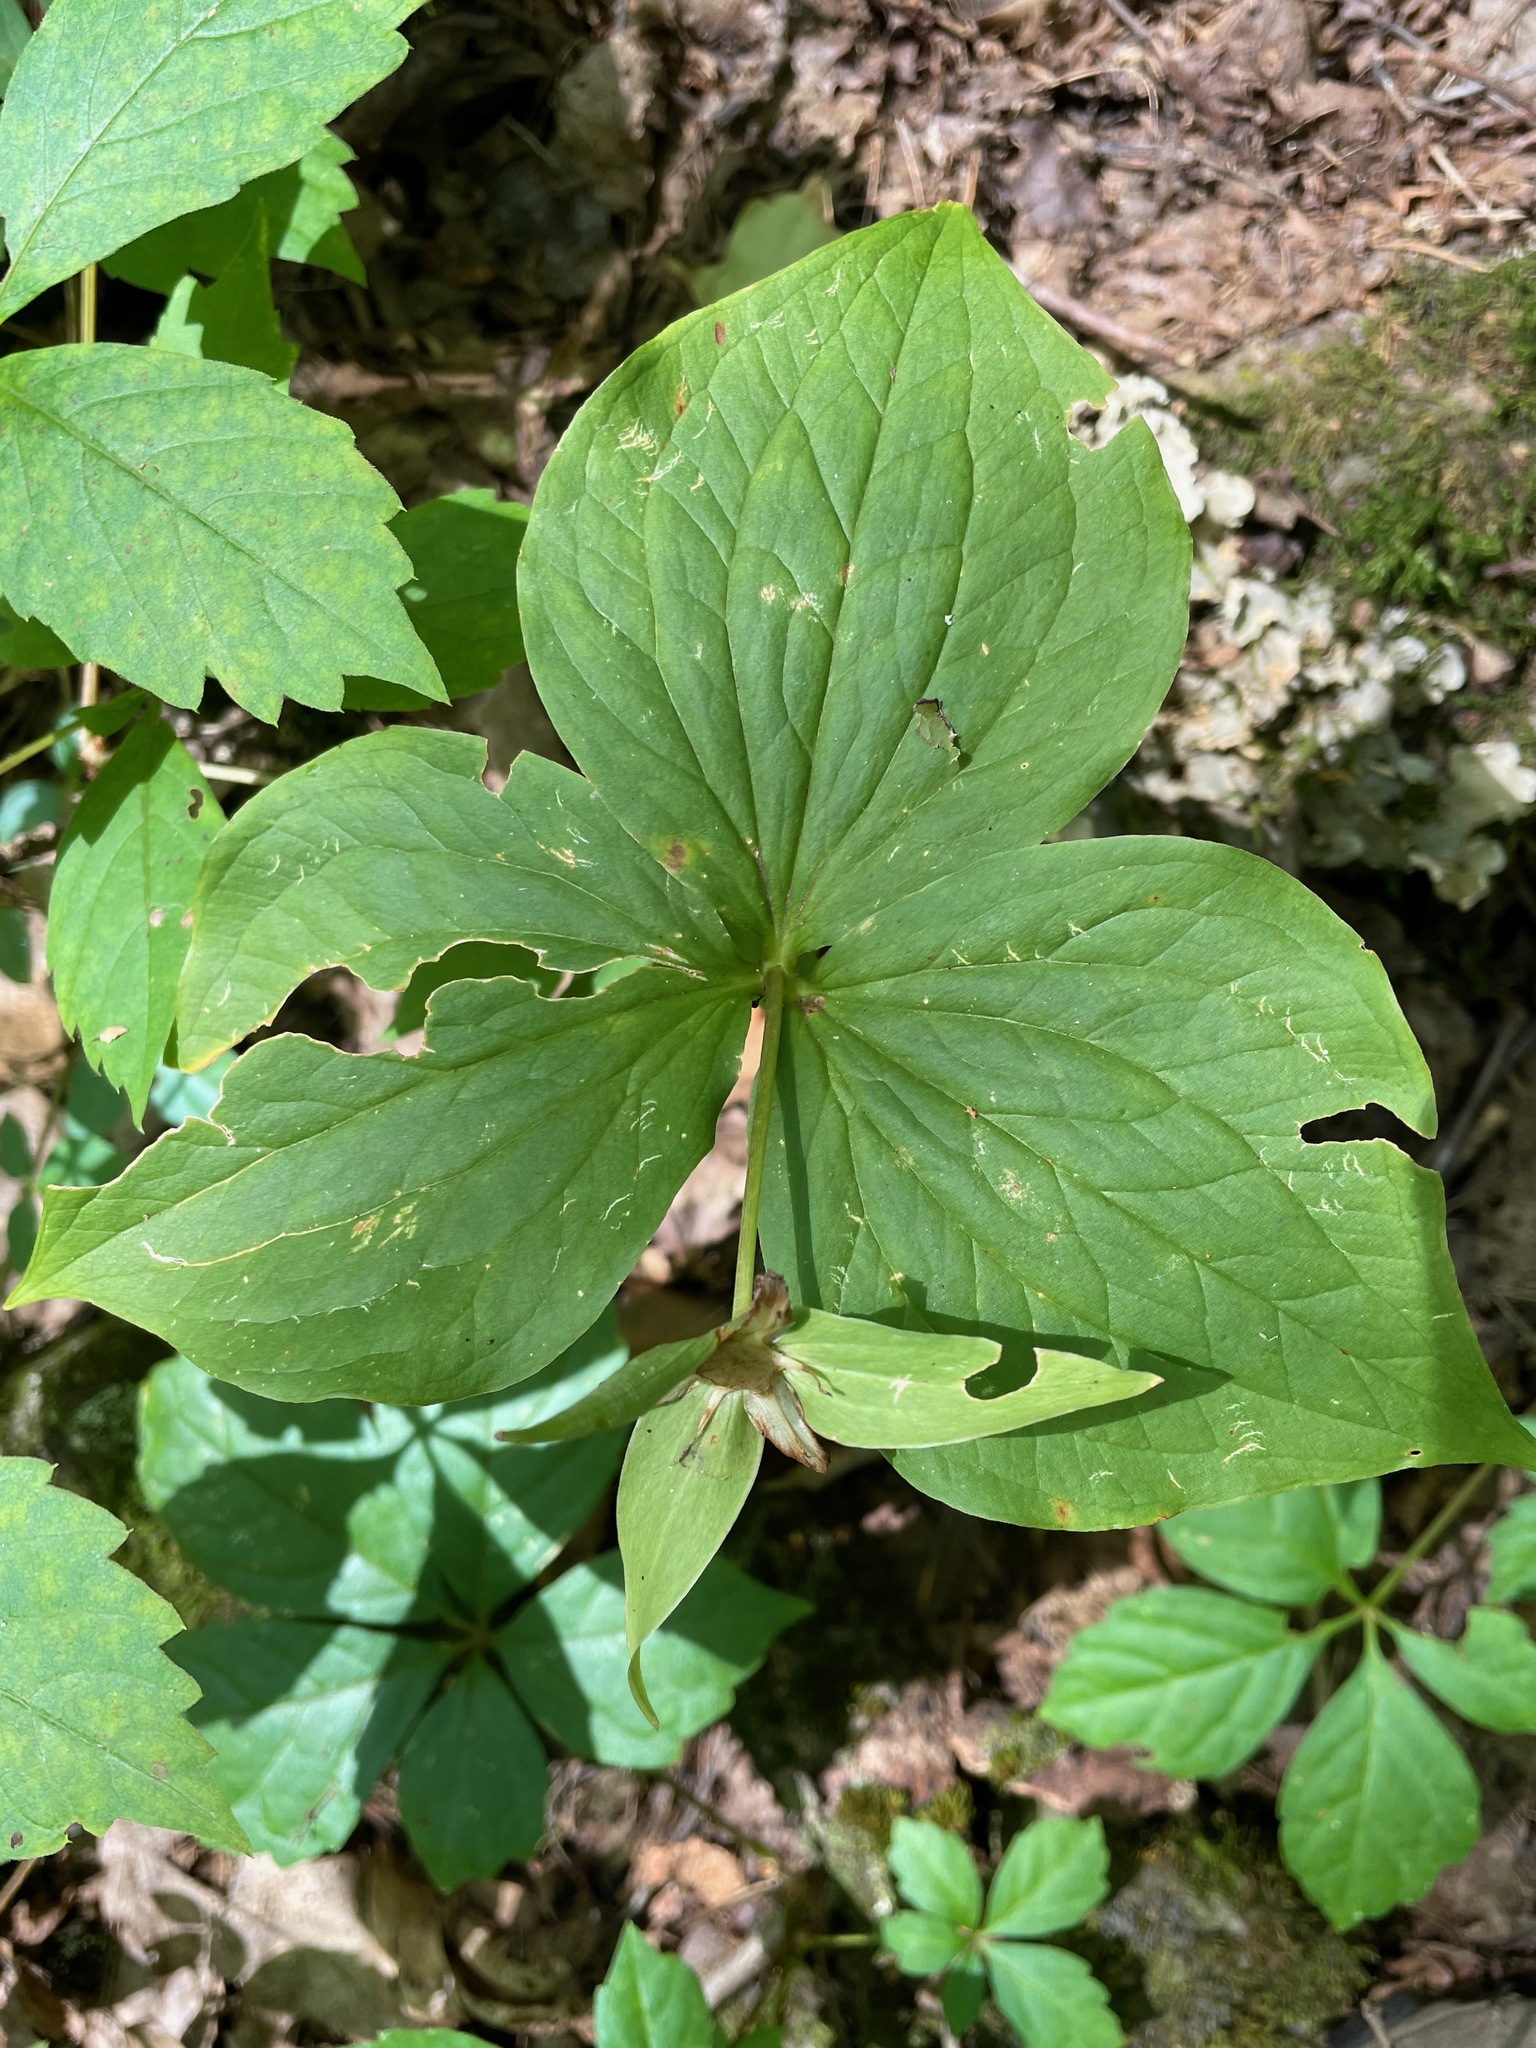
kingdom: Plantae
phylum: Tracheophyta
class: Liliopsida
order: Liliales
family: Melanthiaceae
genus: Trillium
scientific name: Trillium grandiflorum
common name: Great white trillium
